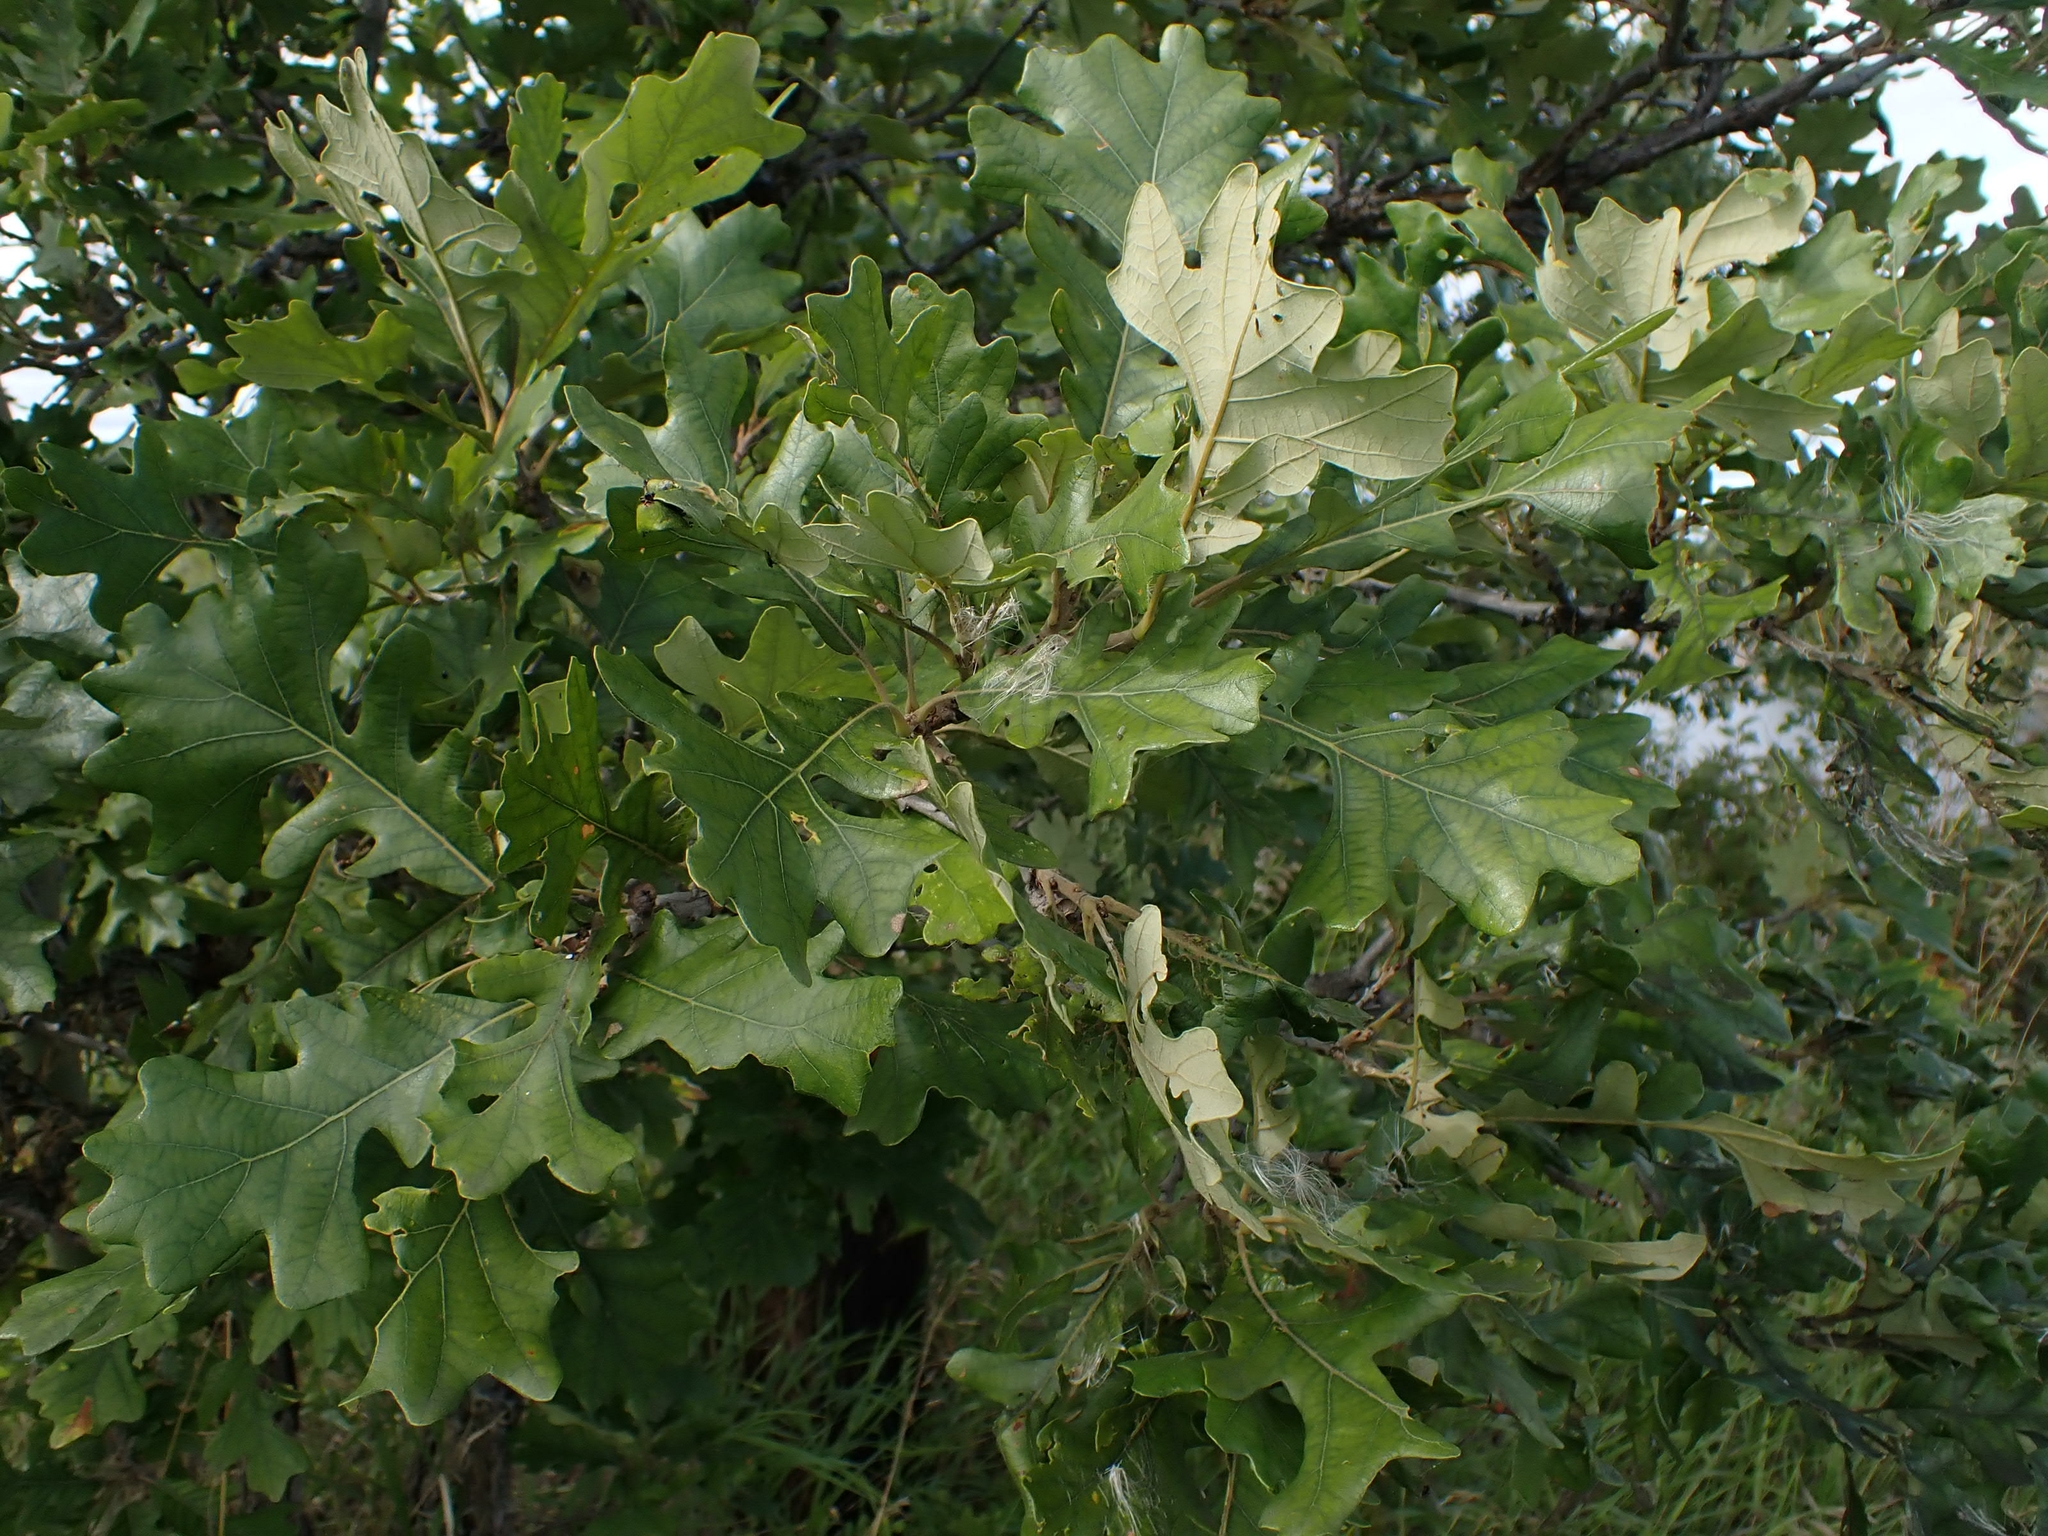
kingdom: Plantae
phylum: Tracheophyta
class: Magnoliopsida
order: Fagales
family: Fagaceae
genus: Quercus
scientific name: Quercus macrocarpa
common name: Bur oak
